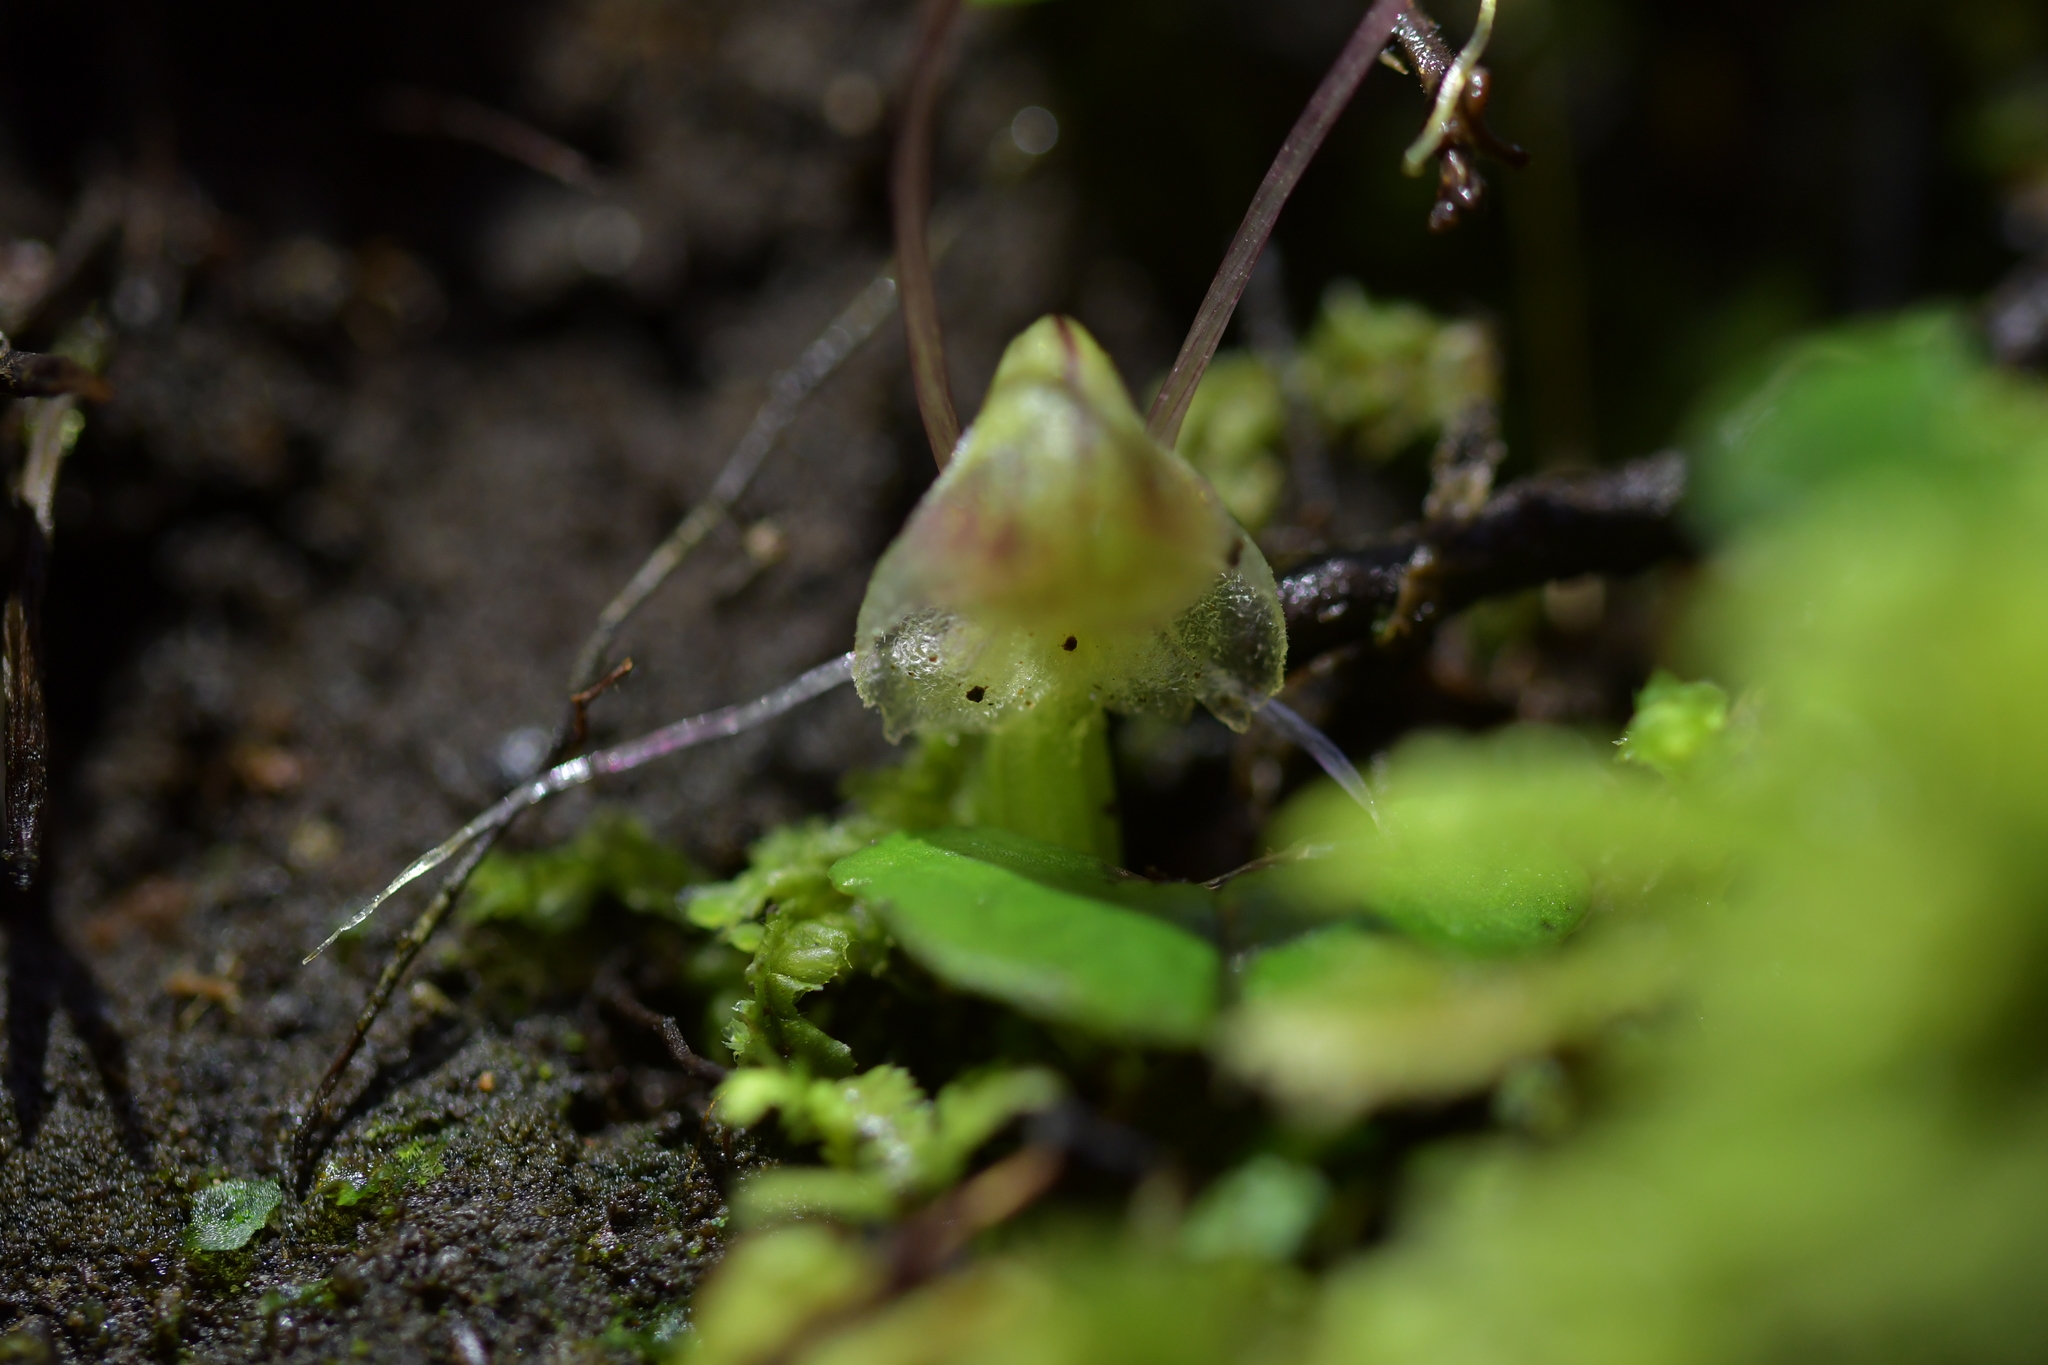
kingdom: Plantae
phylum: Tracheophyta
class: Liliopsida
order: Asparagales
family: Orchidaceae
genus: Corybas
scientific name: Corybas walliae
